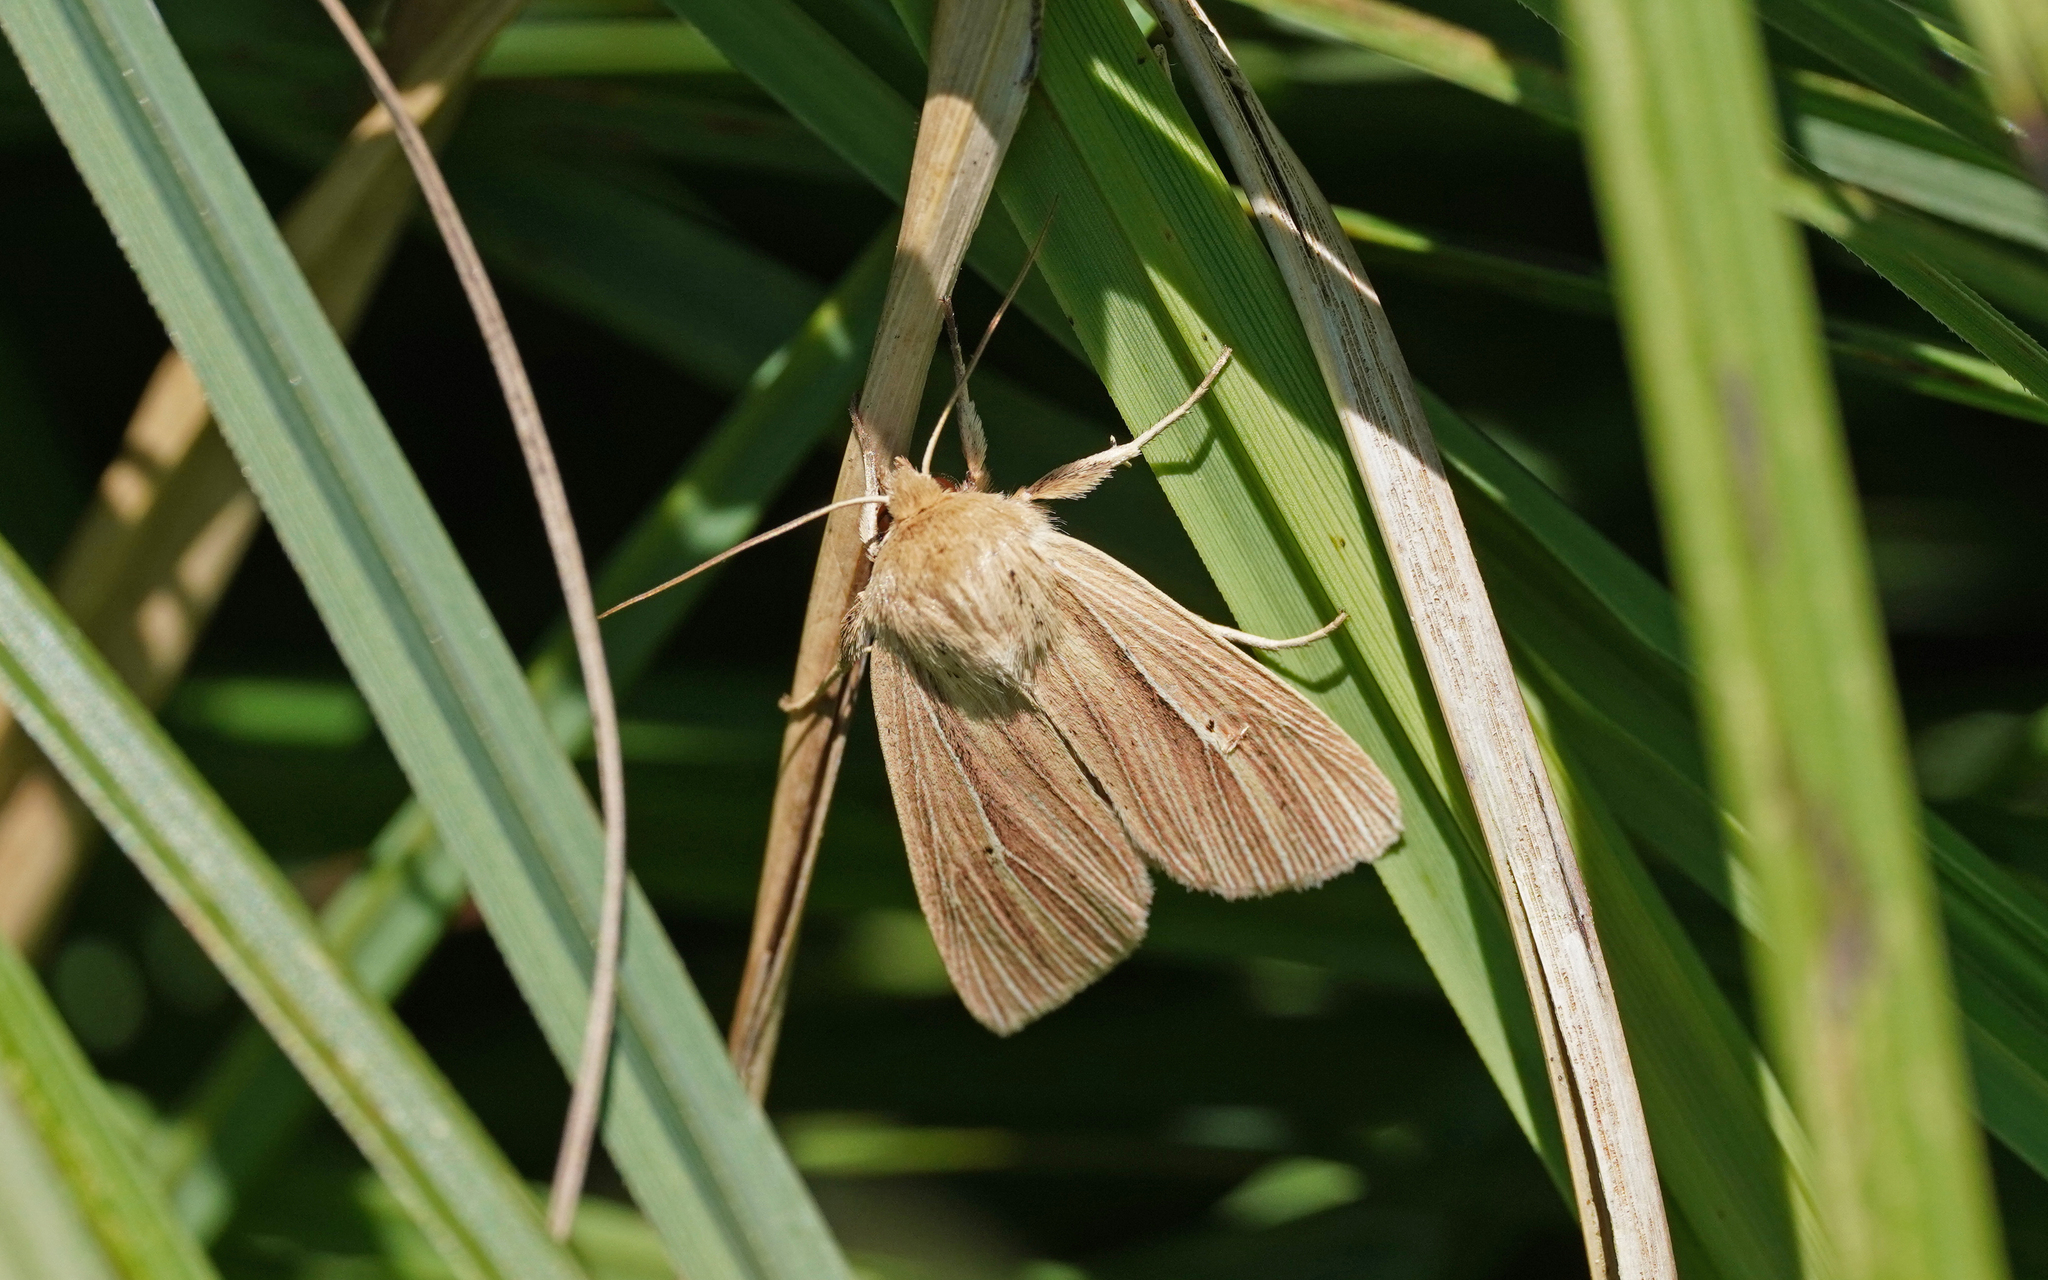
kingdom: Animalia
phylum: Arthropoda
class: Insecta
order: Lepidoptera
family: Noctuidae
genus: Mythimna
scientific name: Mythimna impura
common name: Smoky wainscot
